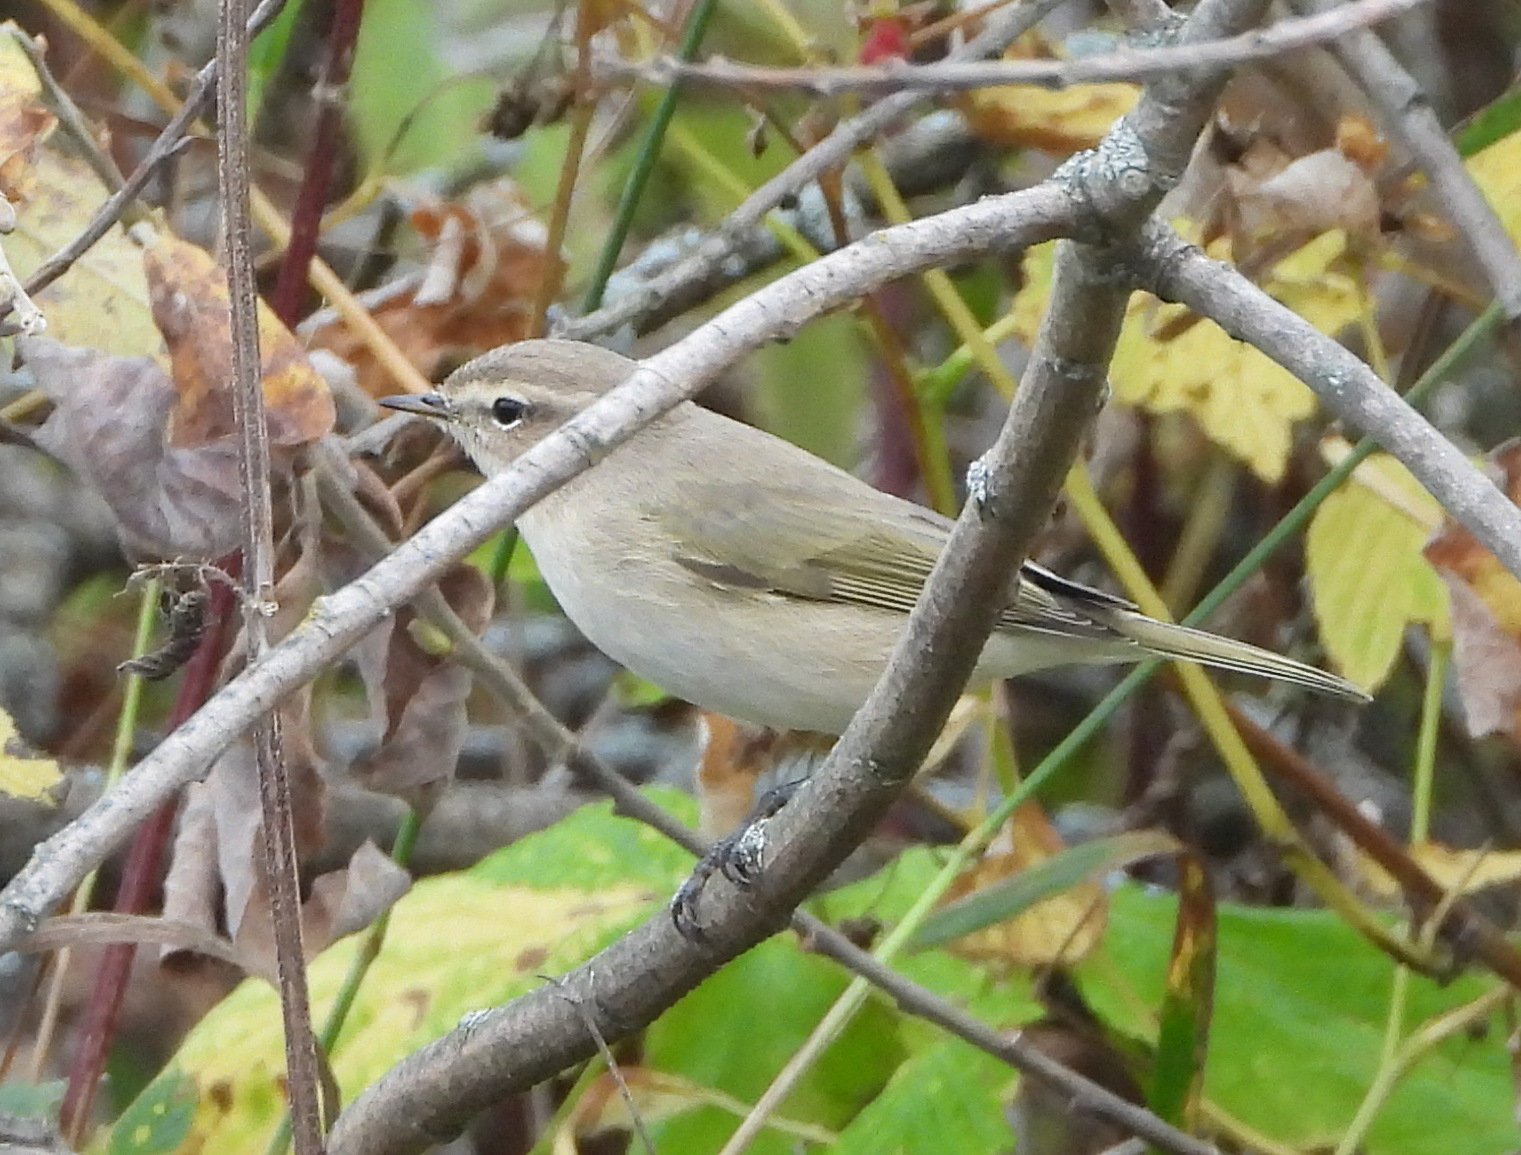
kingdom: Animalia
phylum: Chordata
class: Aves
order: Passeriformes
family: Phylloscopidae
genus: Phylloscopus
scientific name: Phylloscopus collybita
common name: Common chiffchaff
